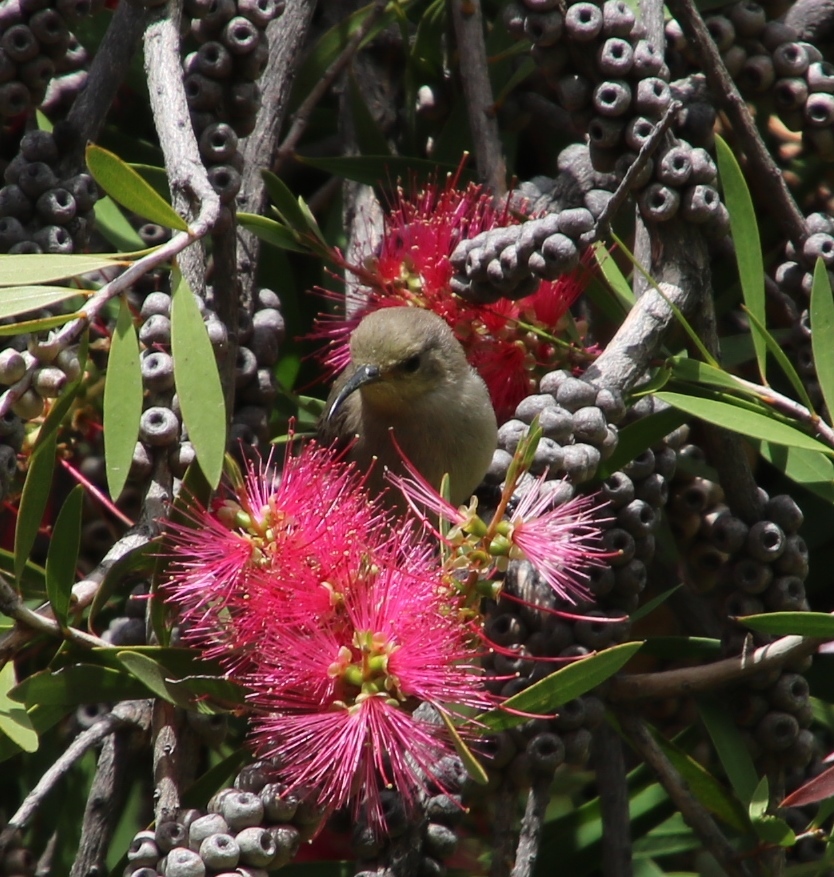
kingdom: Animalia
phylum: Chordata
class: Aves
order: Passeriformes
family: Nectariniidae
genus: Cinnyris
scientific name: Cinnyris chalybeus
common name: Southern double-collared sunbird
